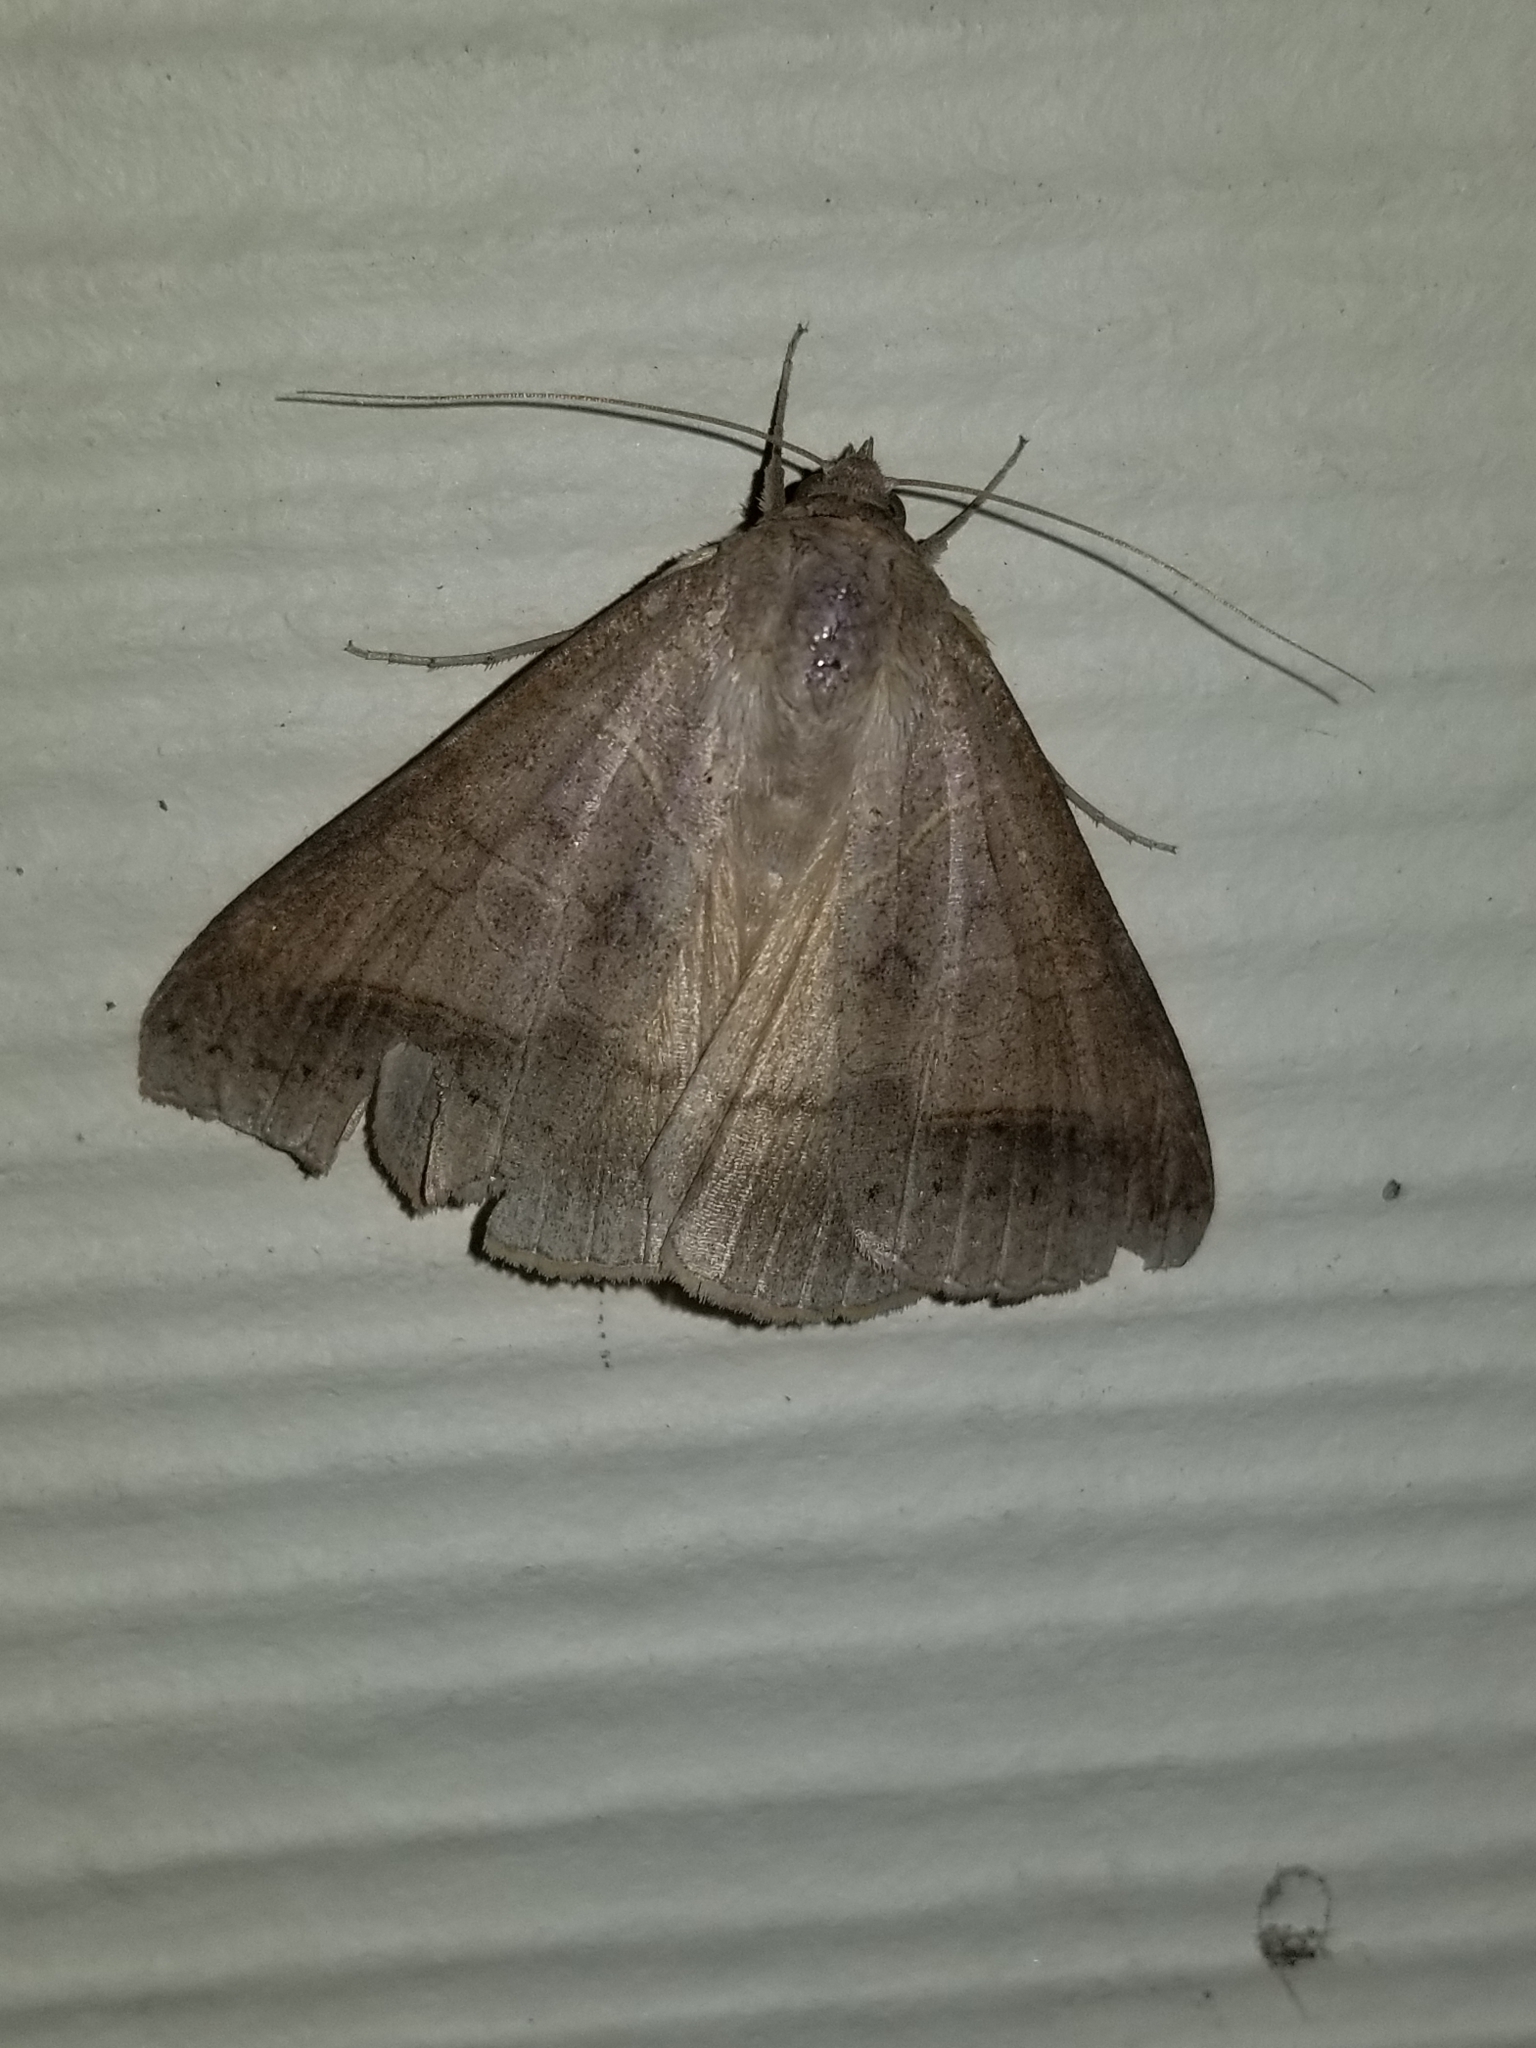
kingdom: Animalia
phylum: Arthropoda
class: Insecta
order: Lepidoptera
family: Erebidae
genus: Mocis
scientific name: Mocis marcida
